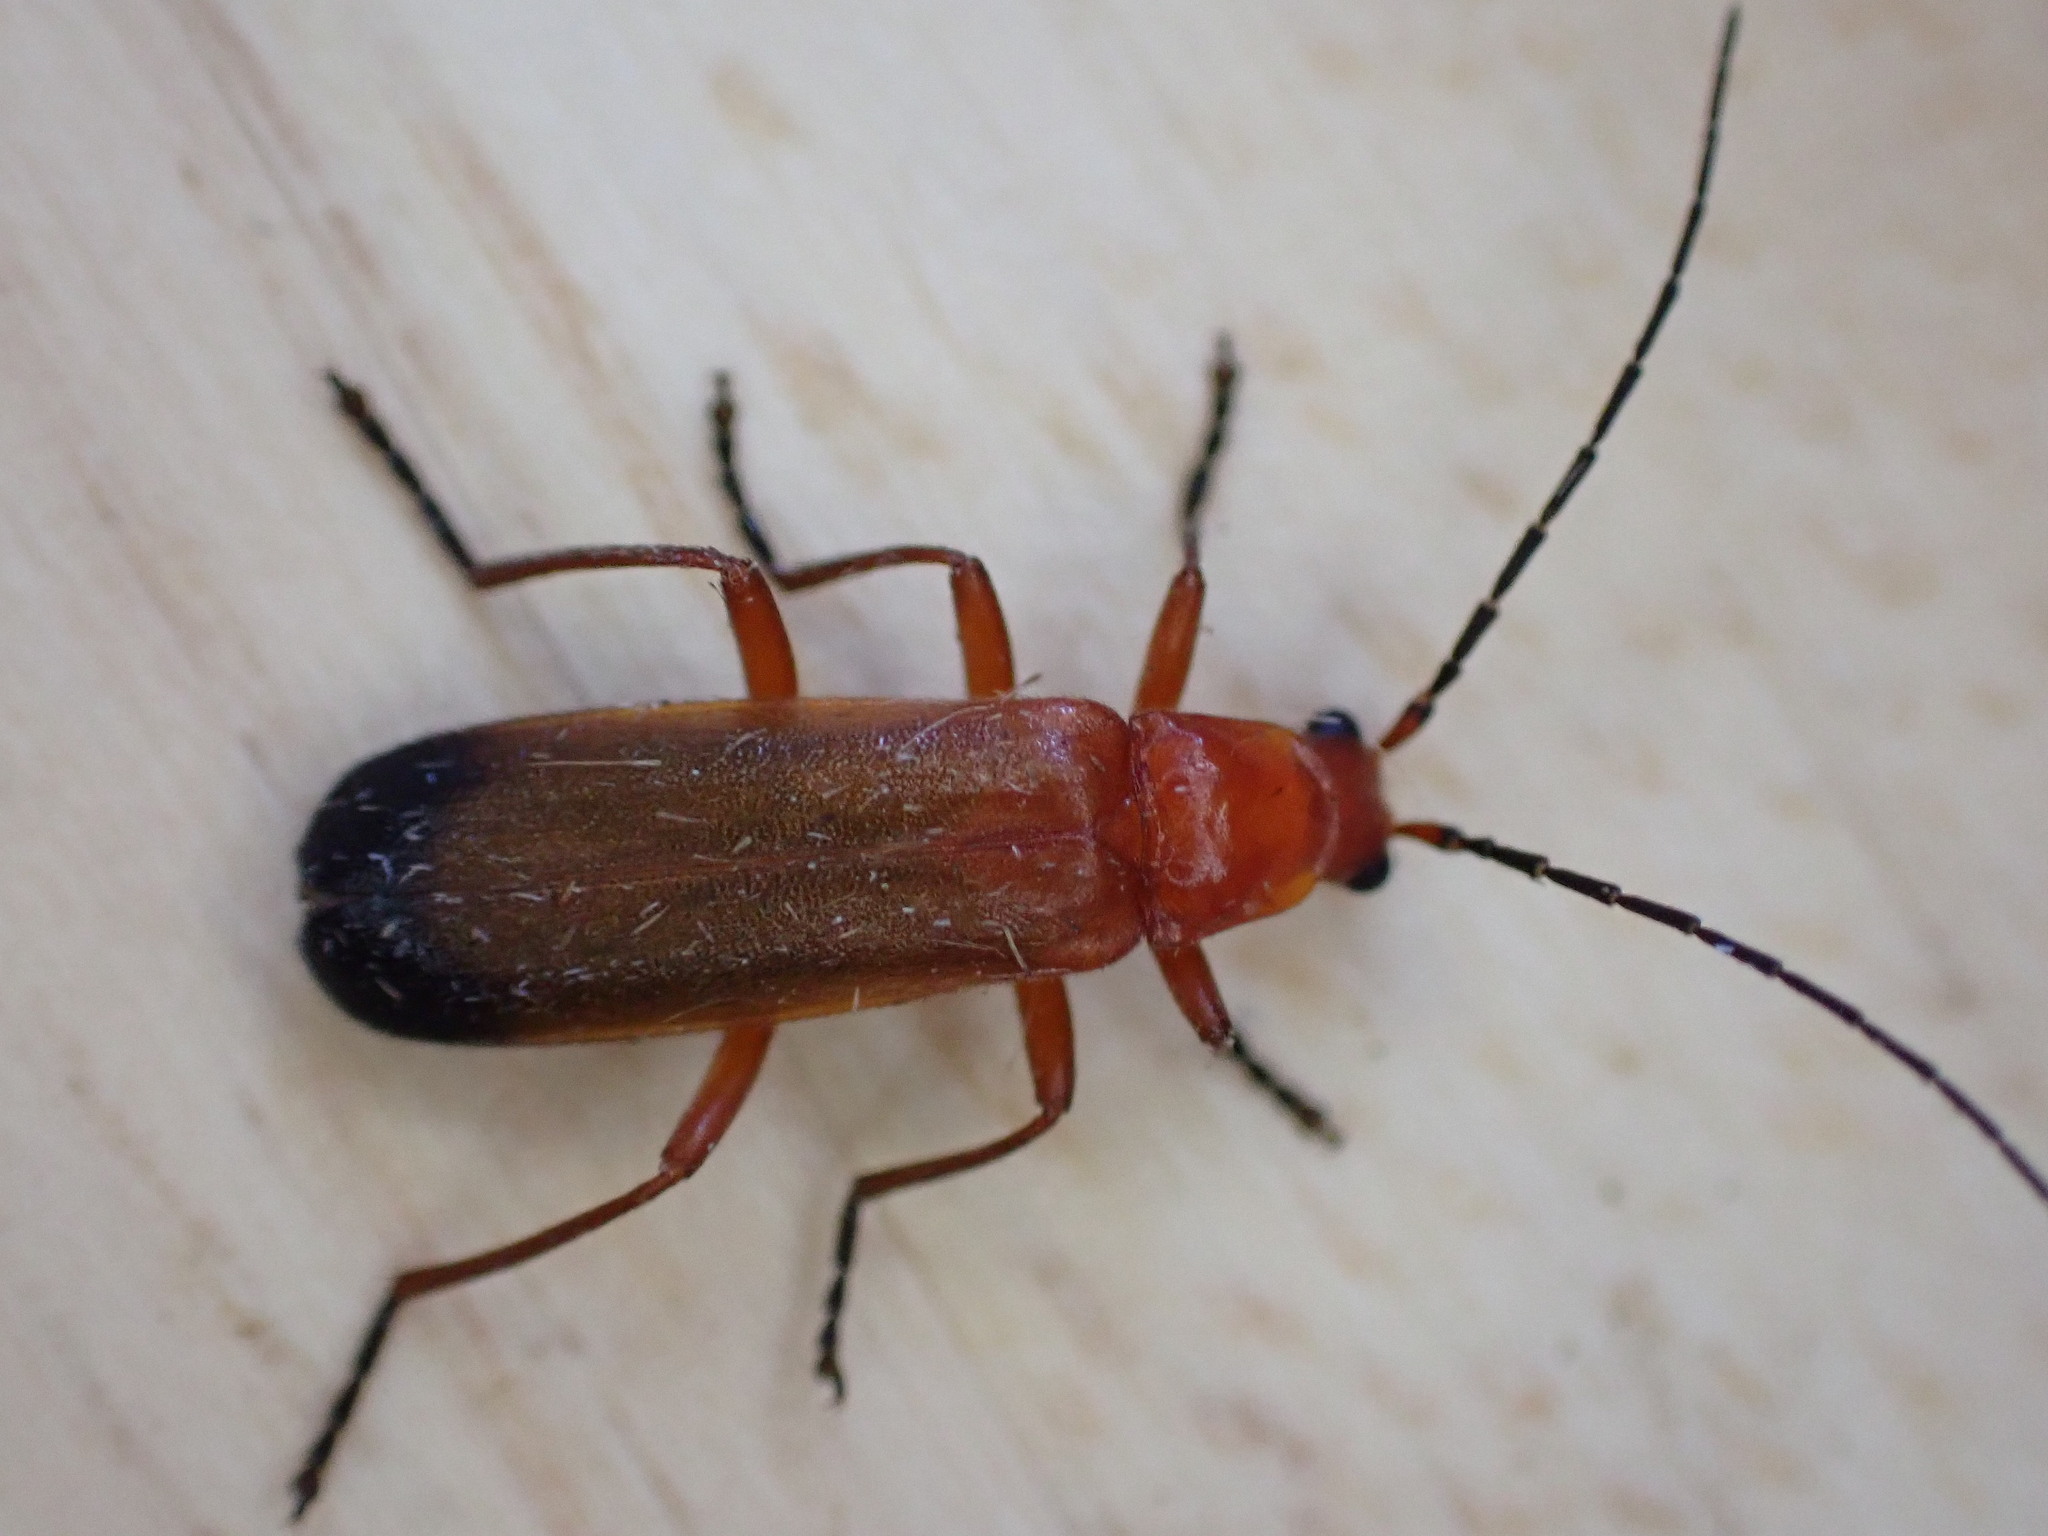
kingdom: Animalia
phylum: Arthropoda
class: Insecta
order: Coleoptera
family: Cantharidae
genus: Rhagonycha
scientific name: Rhagonycha fulva
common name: Common red soldier beetle
